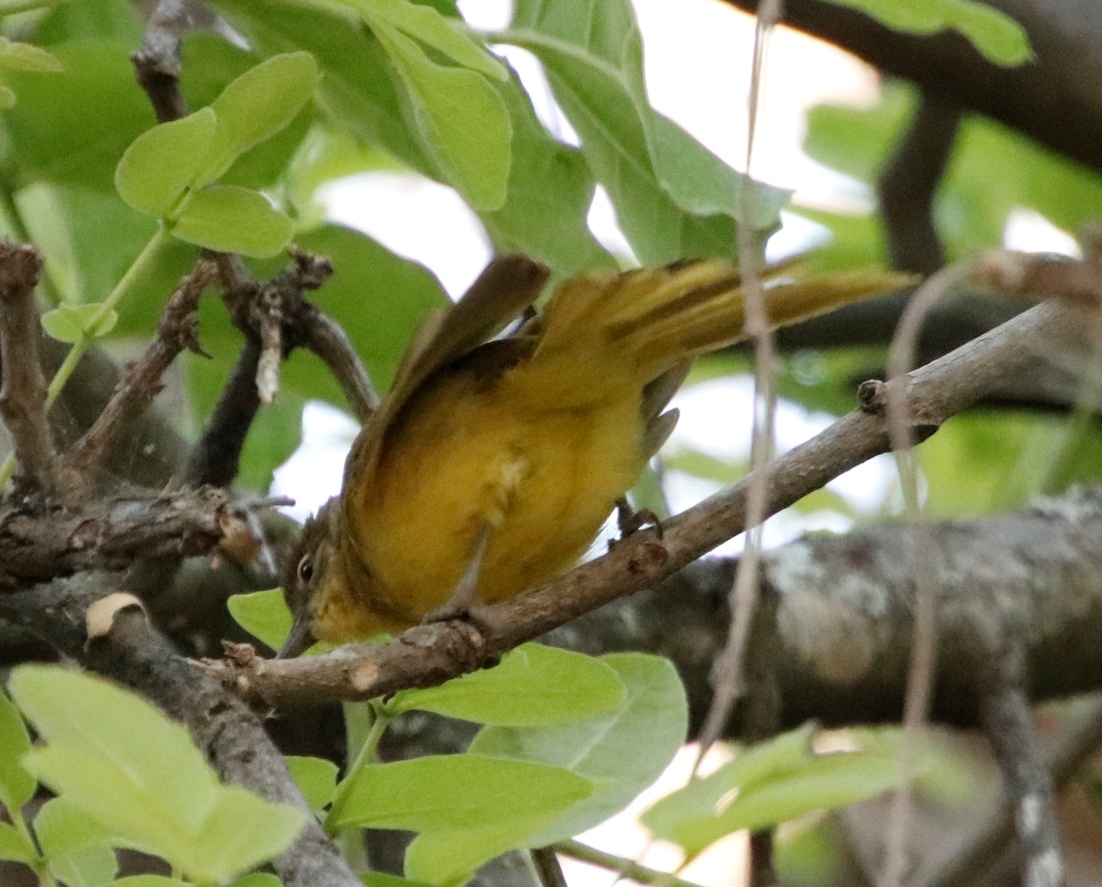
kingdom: Animalia
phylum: Chordata
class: Aves
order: Passeriformes
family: Pycnonotidae
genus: Chlorocichla
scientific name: Chlorocichla flaviventris
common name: Yellow-bellied greenbul
